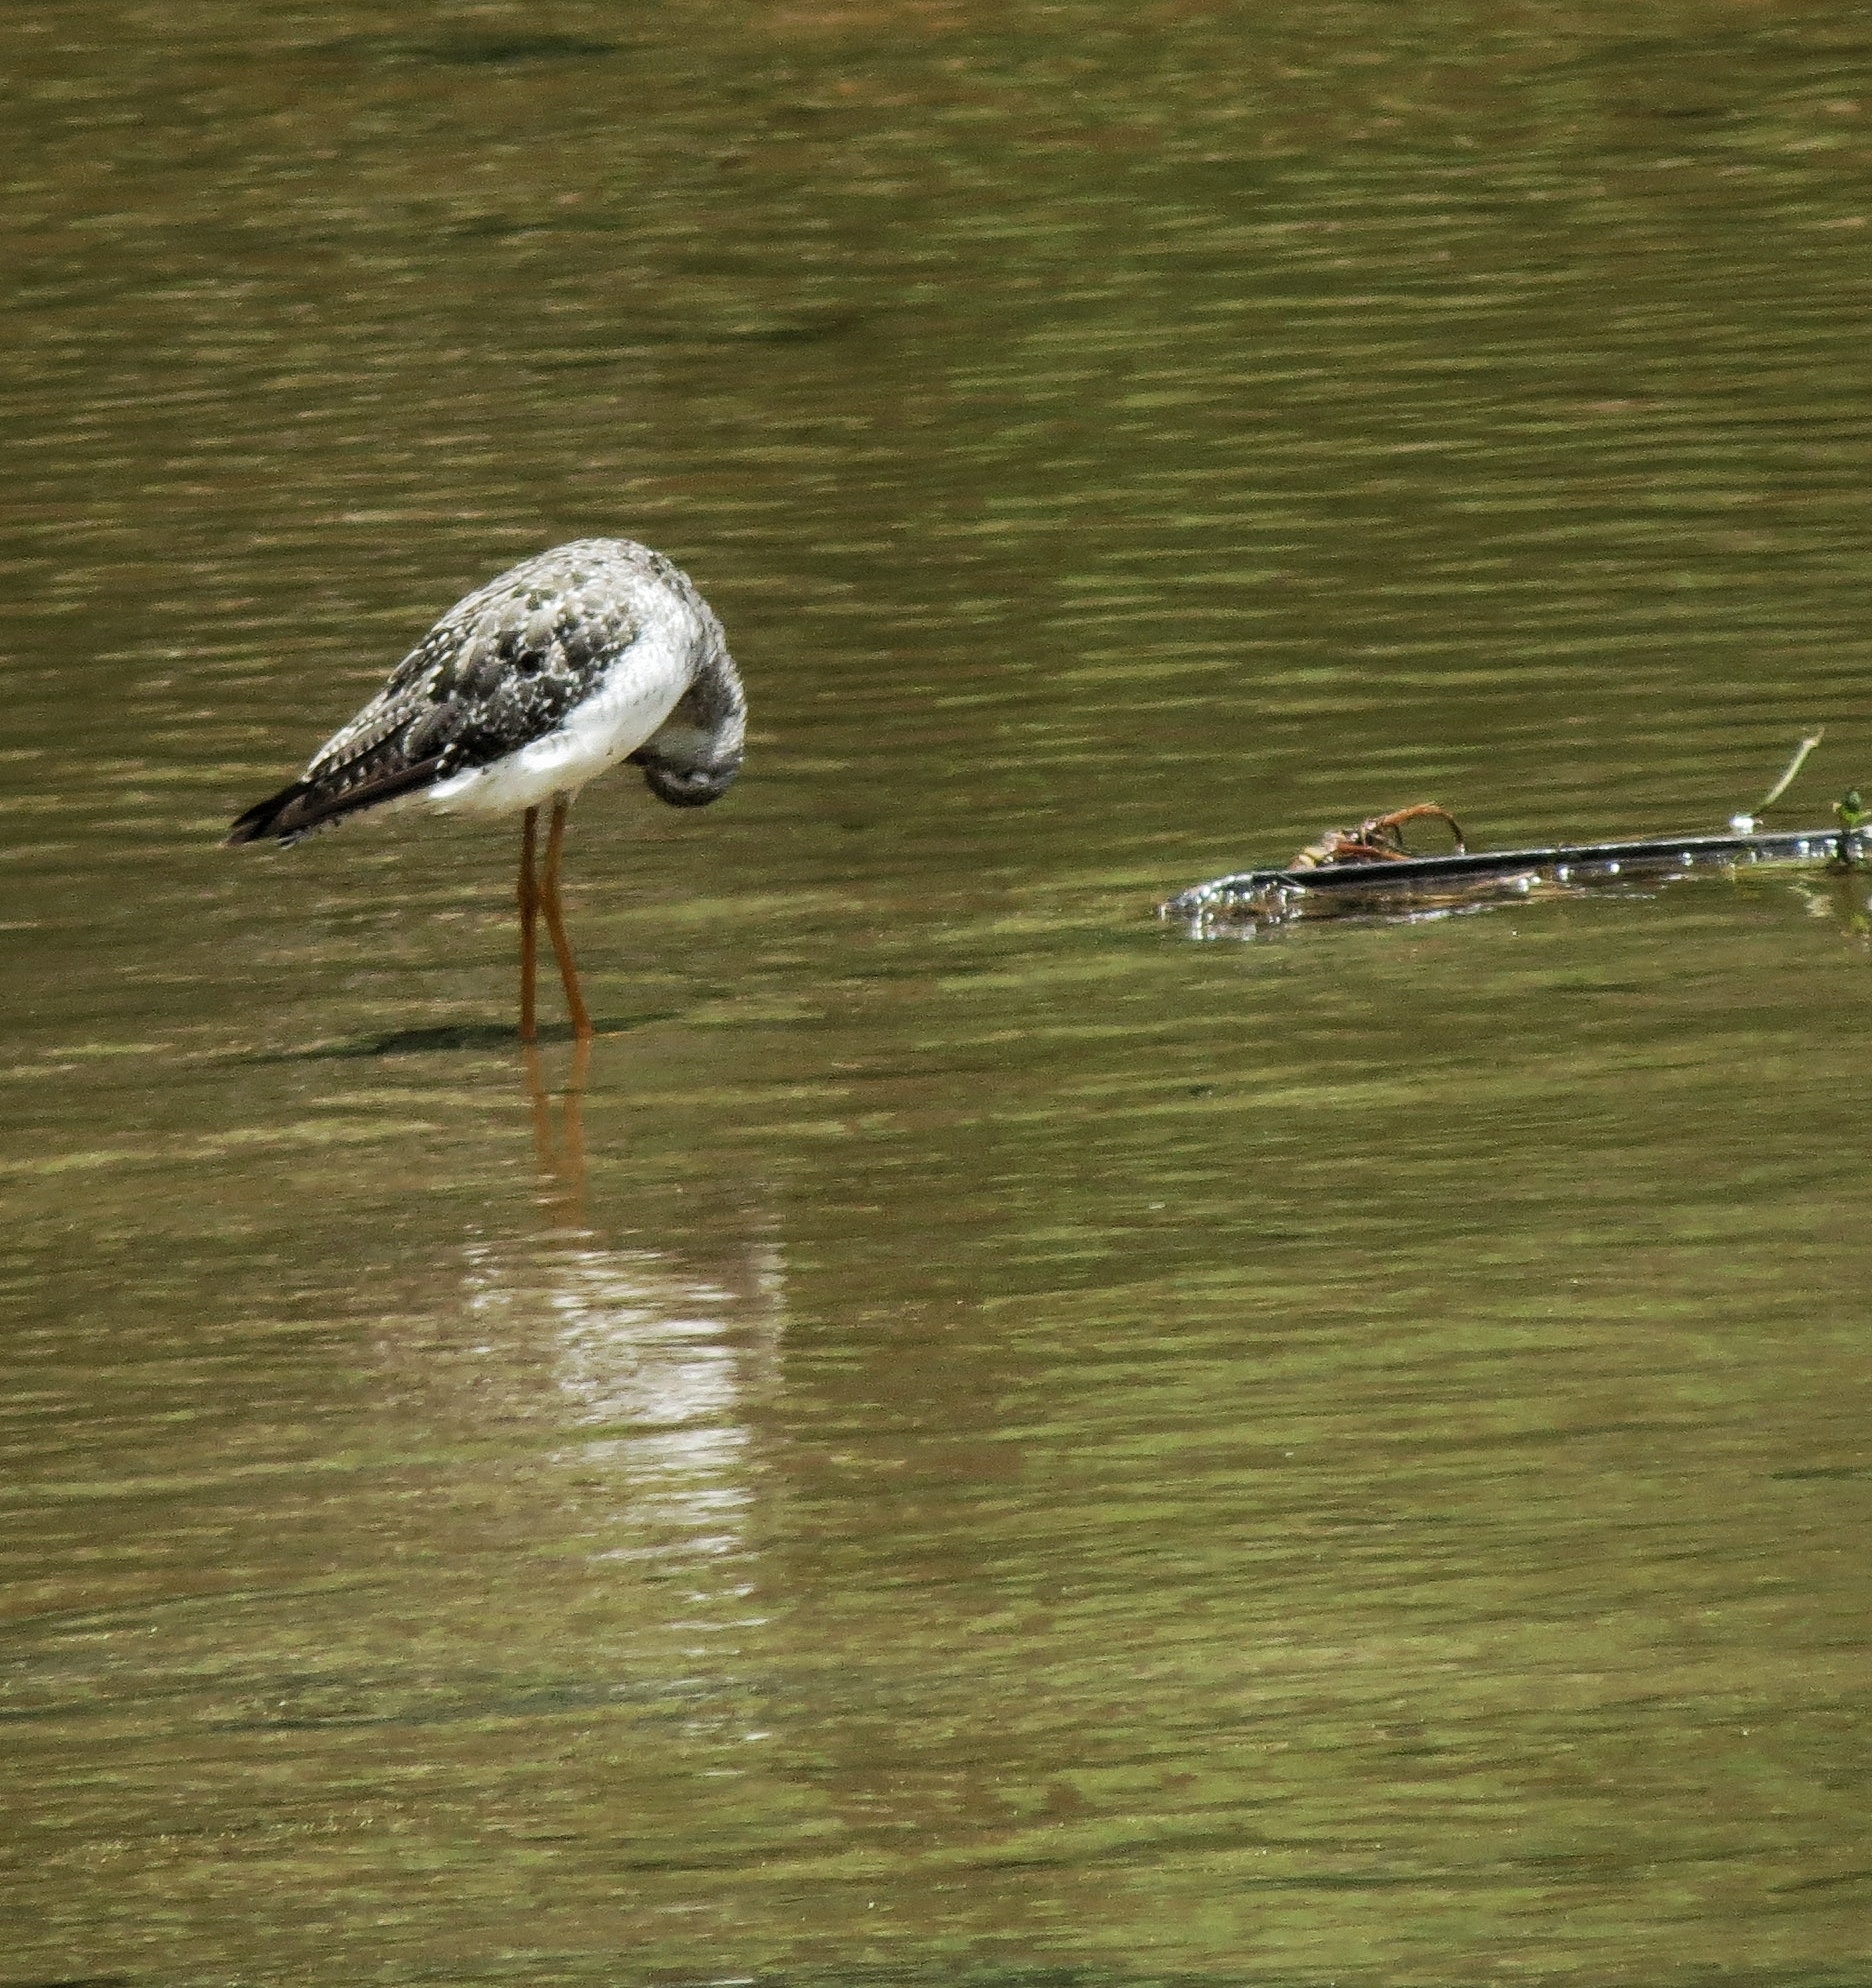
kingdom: Animalia
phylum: Chordata
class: Aves
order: Charadriiformes
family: Scolopacidae
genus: Tringa
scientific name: Tringa melanoleuca
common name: Greater yellowlegs
